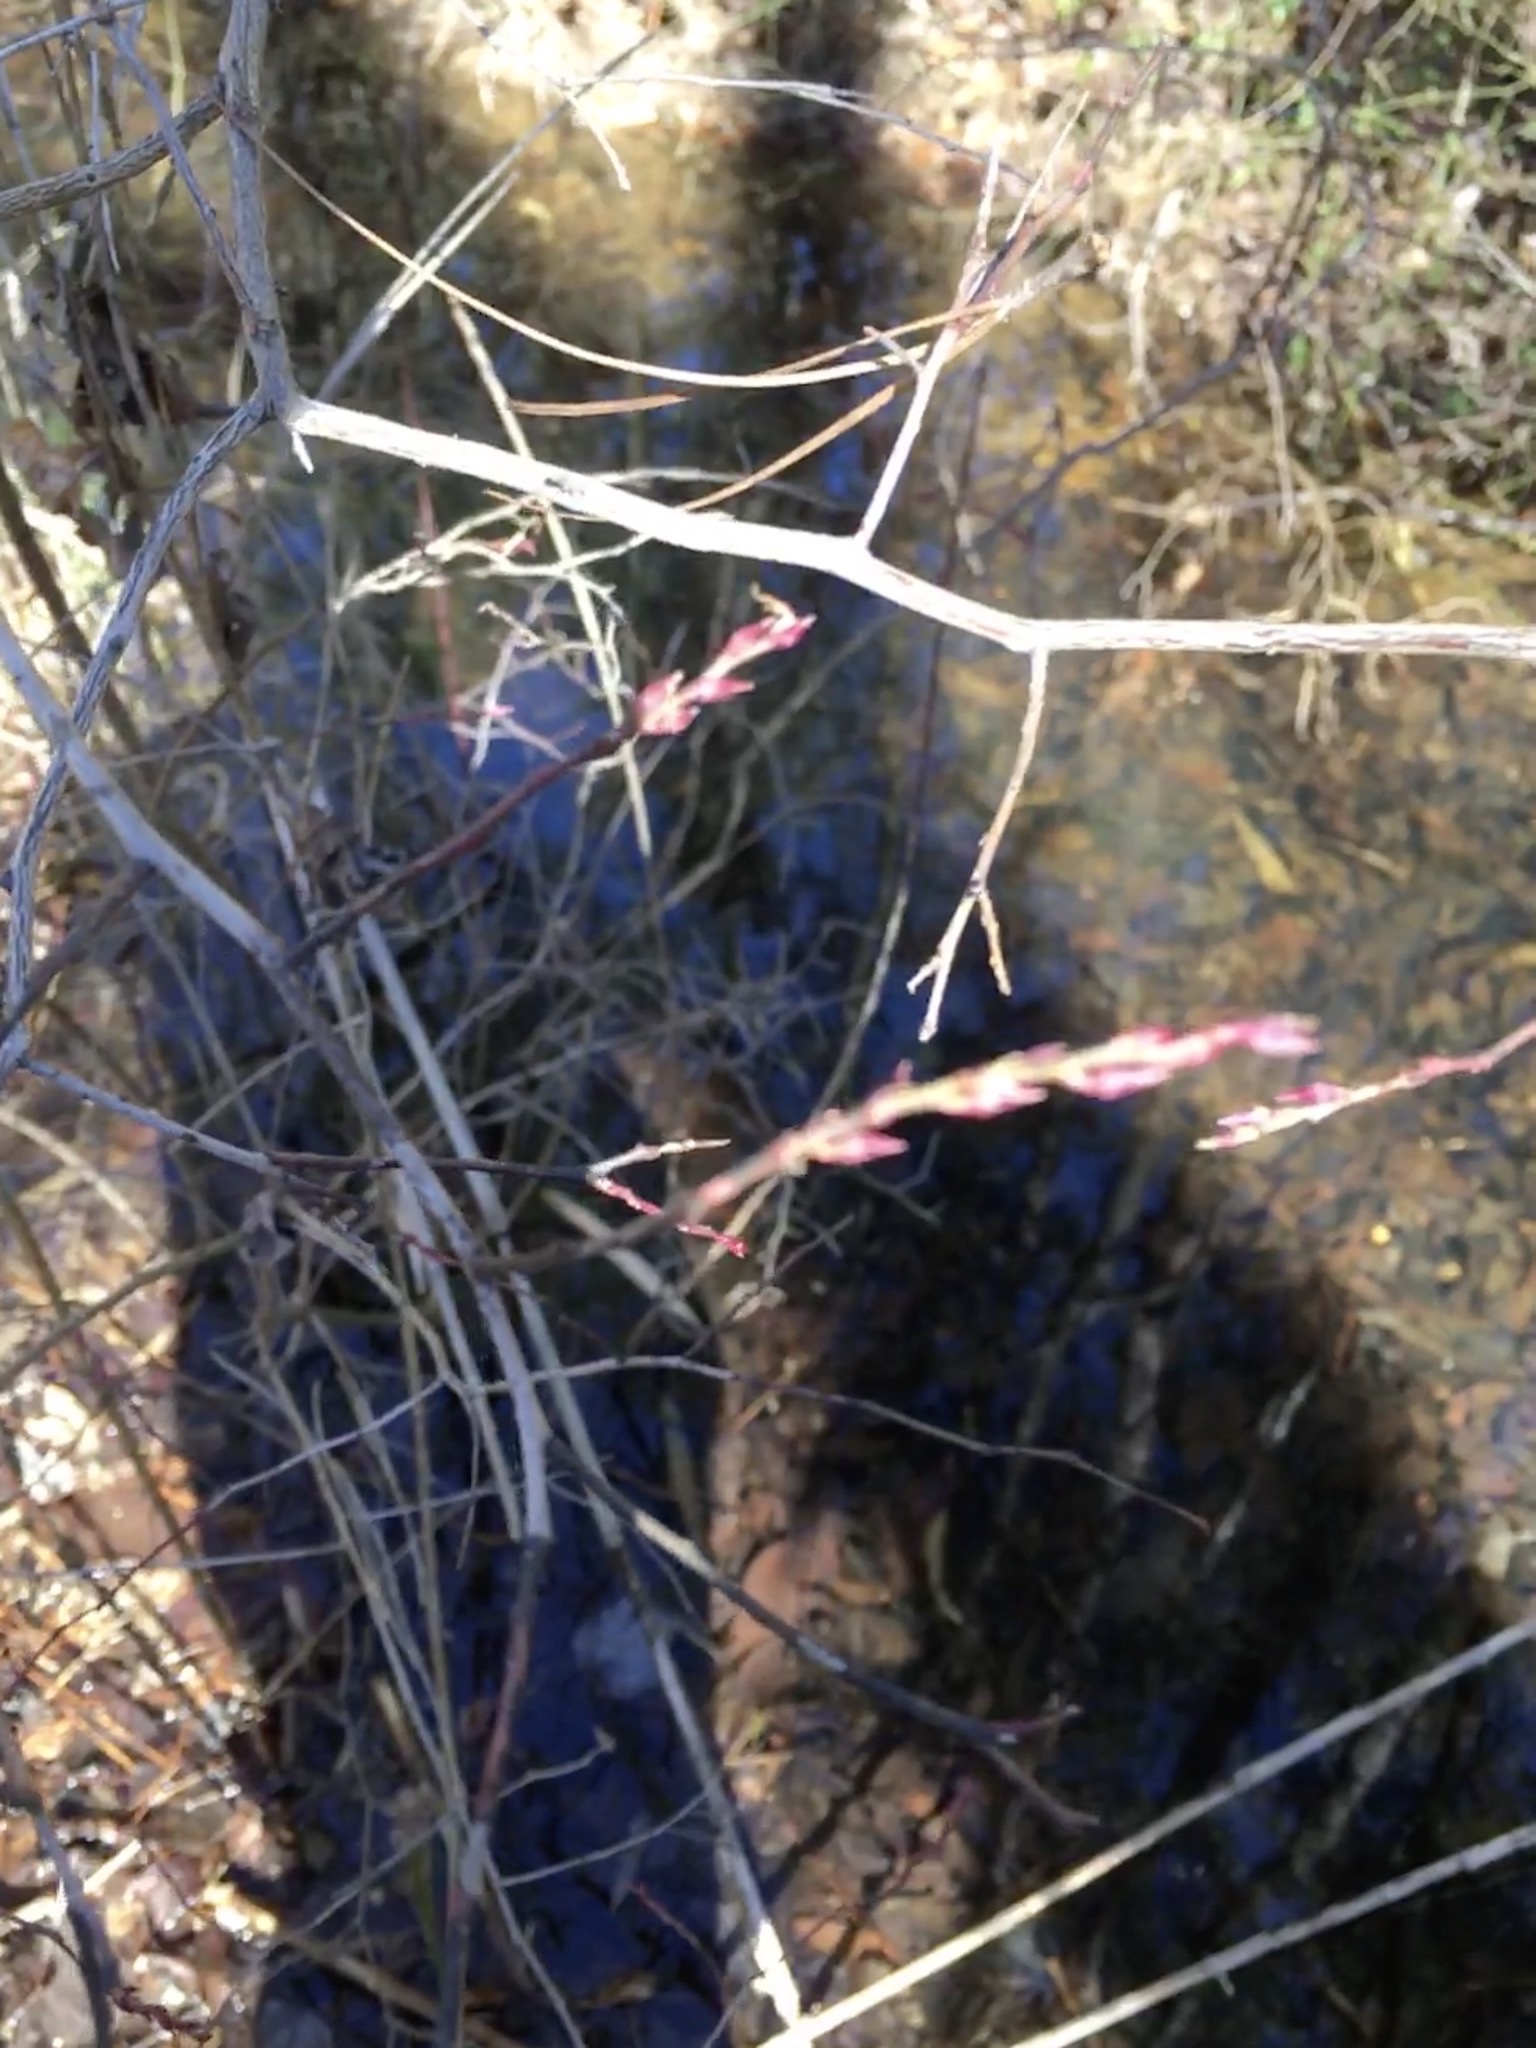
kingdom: Plantae
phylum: Tracheophyta
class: Magnoliopsida
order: Ericales
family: Ericaceae
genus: Eubotrys
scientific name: Eubotrys racemosa
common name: Fetterbush
